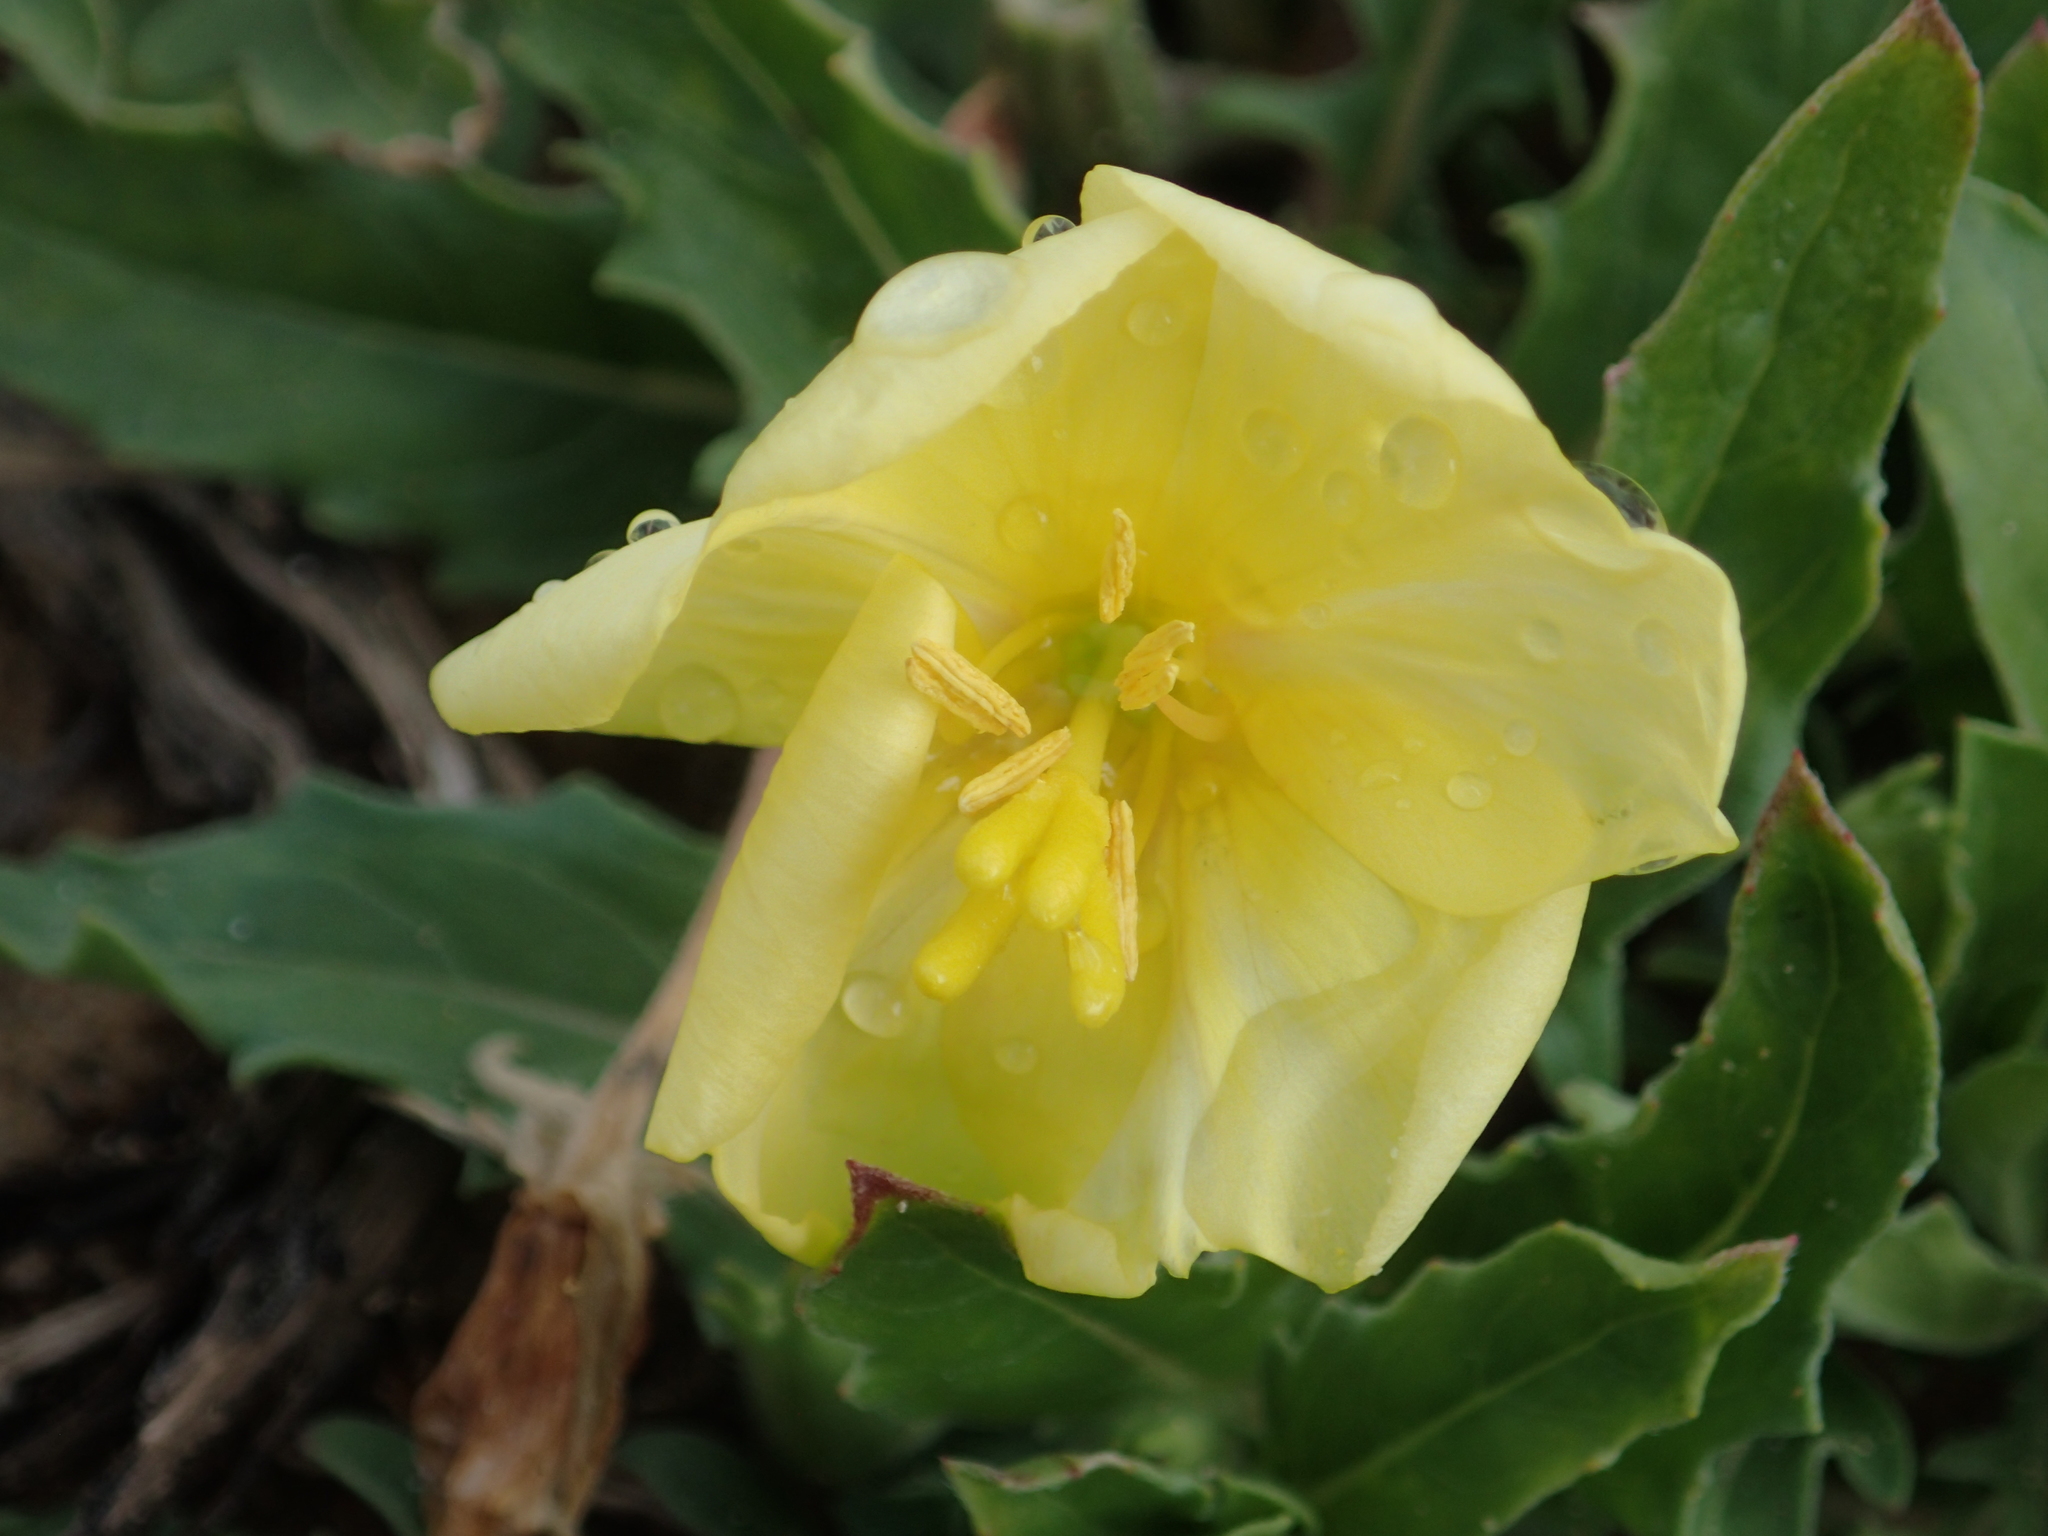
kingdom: Plantae
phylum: Tracheophyta
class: Magnoliopsida
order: Myrtales
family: Onagraceae
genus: Oenothera
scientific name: Oenothera laciniata
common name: Cut-leaved evening-primrose
